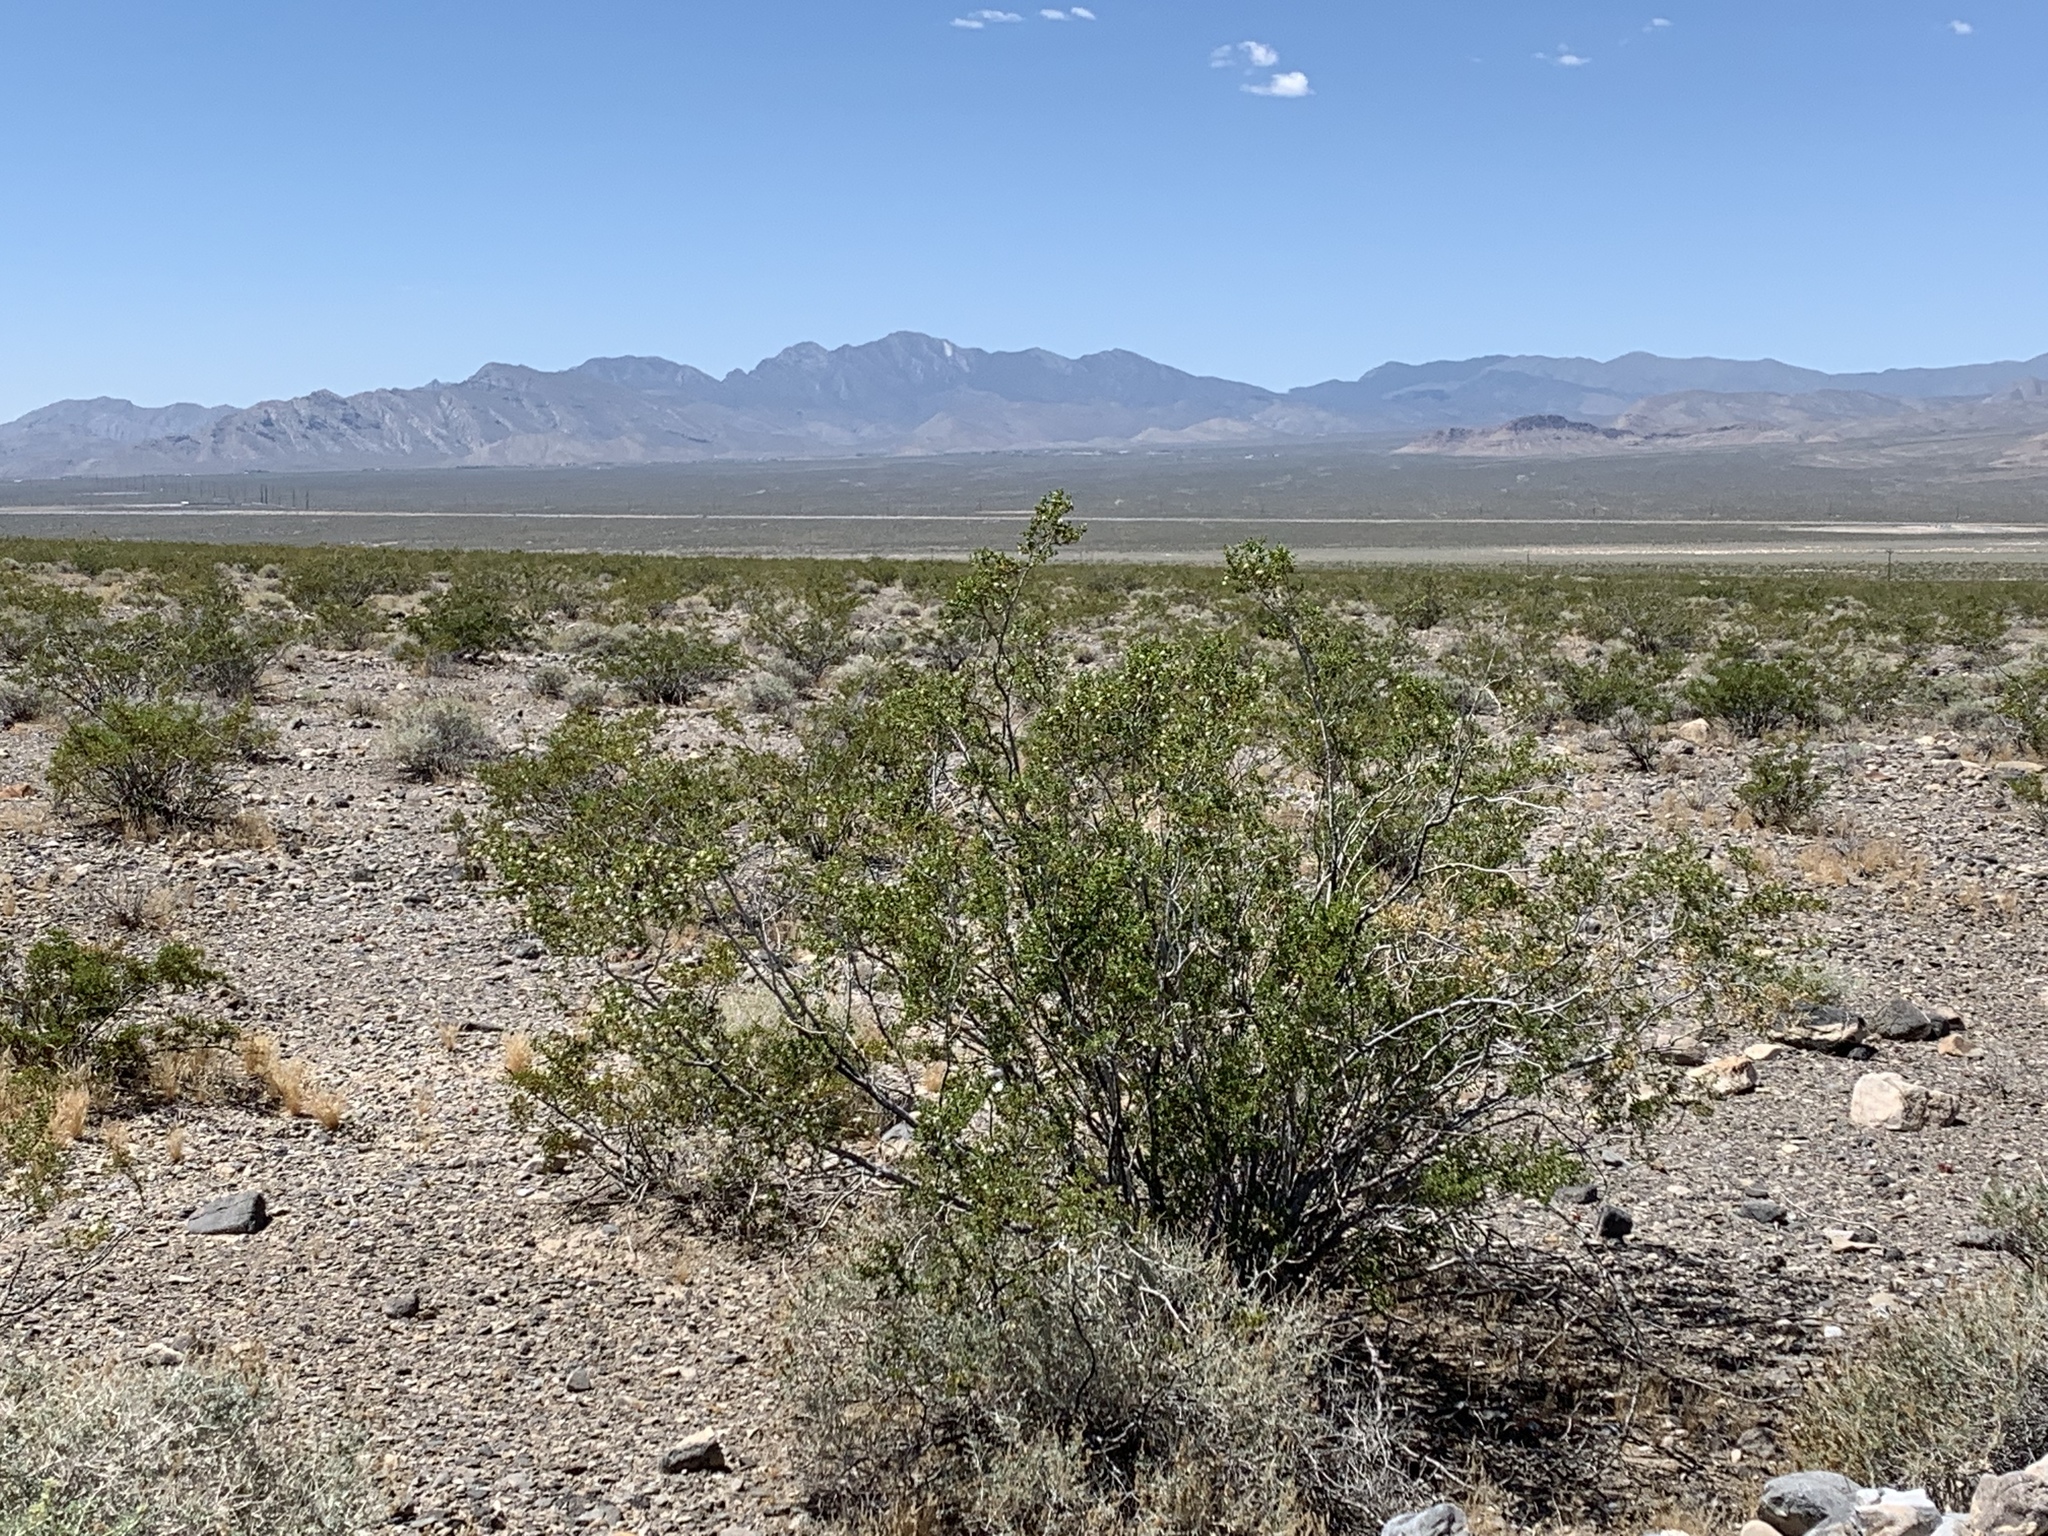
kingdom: Plantae
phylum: Tracheophyta
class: Magnoliopsida
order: Zygophyllales
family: Zygophyllaceae
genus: Larrea
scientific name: Larrea tridentata
